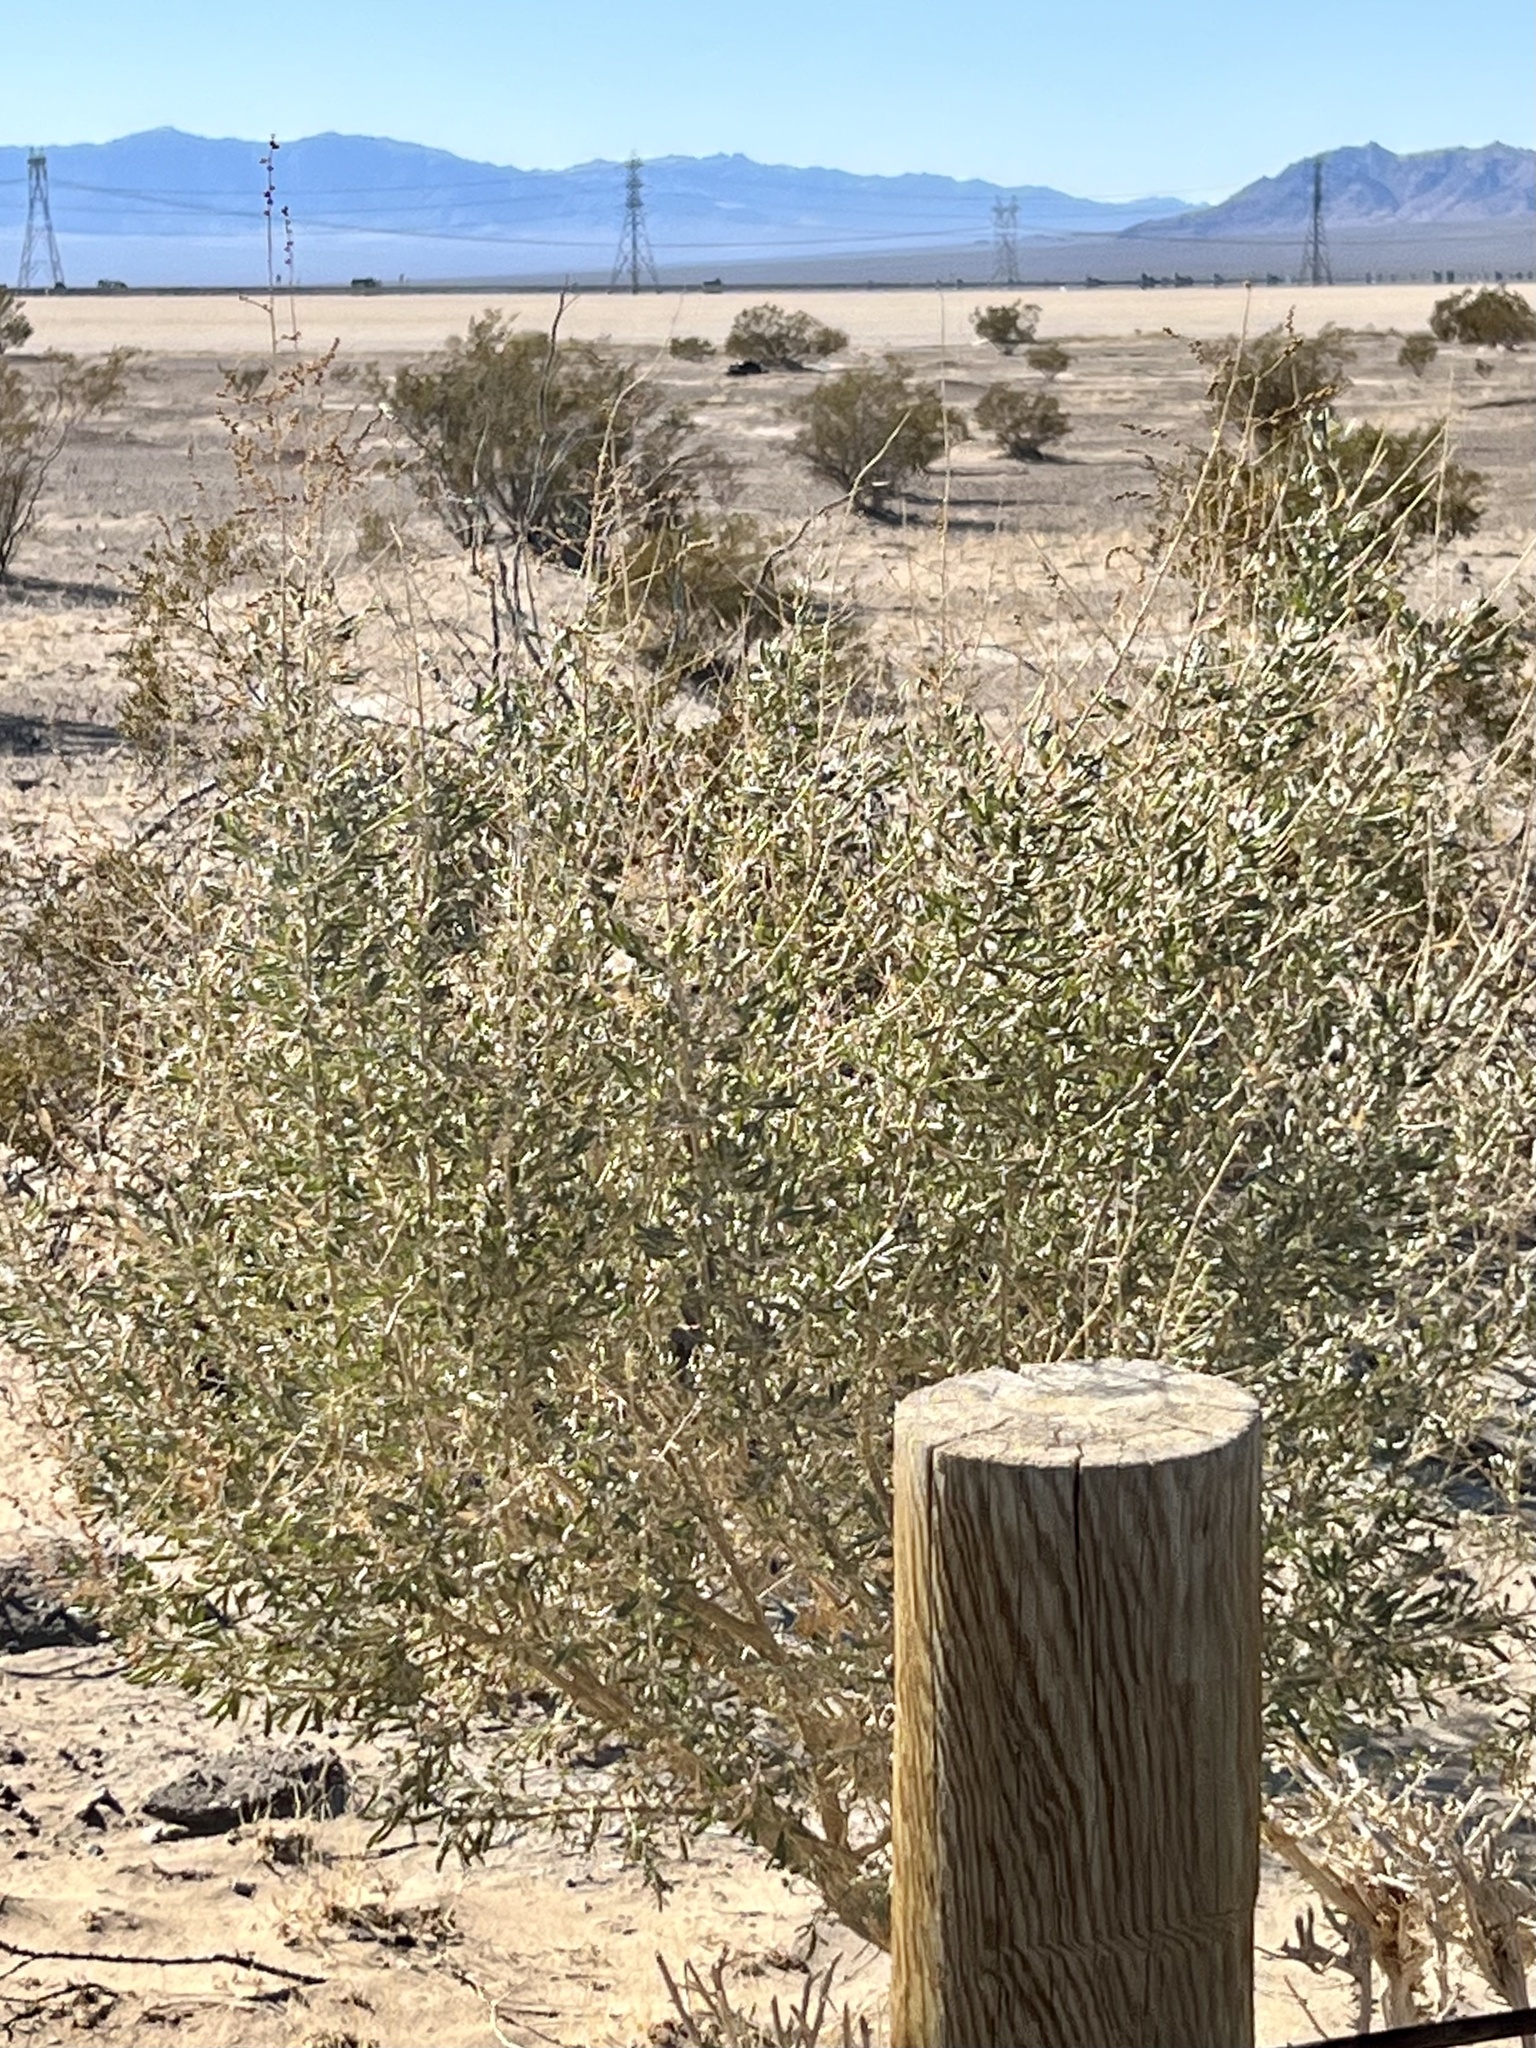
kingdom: Plantae
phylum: Tracheophyta
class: Magnoliopsida
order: Caryophyllales
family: Amaranthaceae
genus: Atriplex
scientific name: Atriplex canescens
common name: Four-wing saltbush
